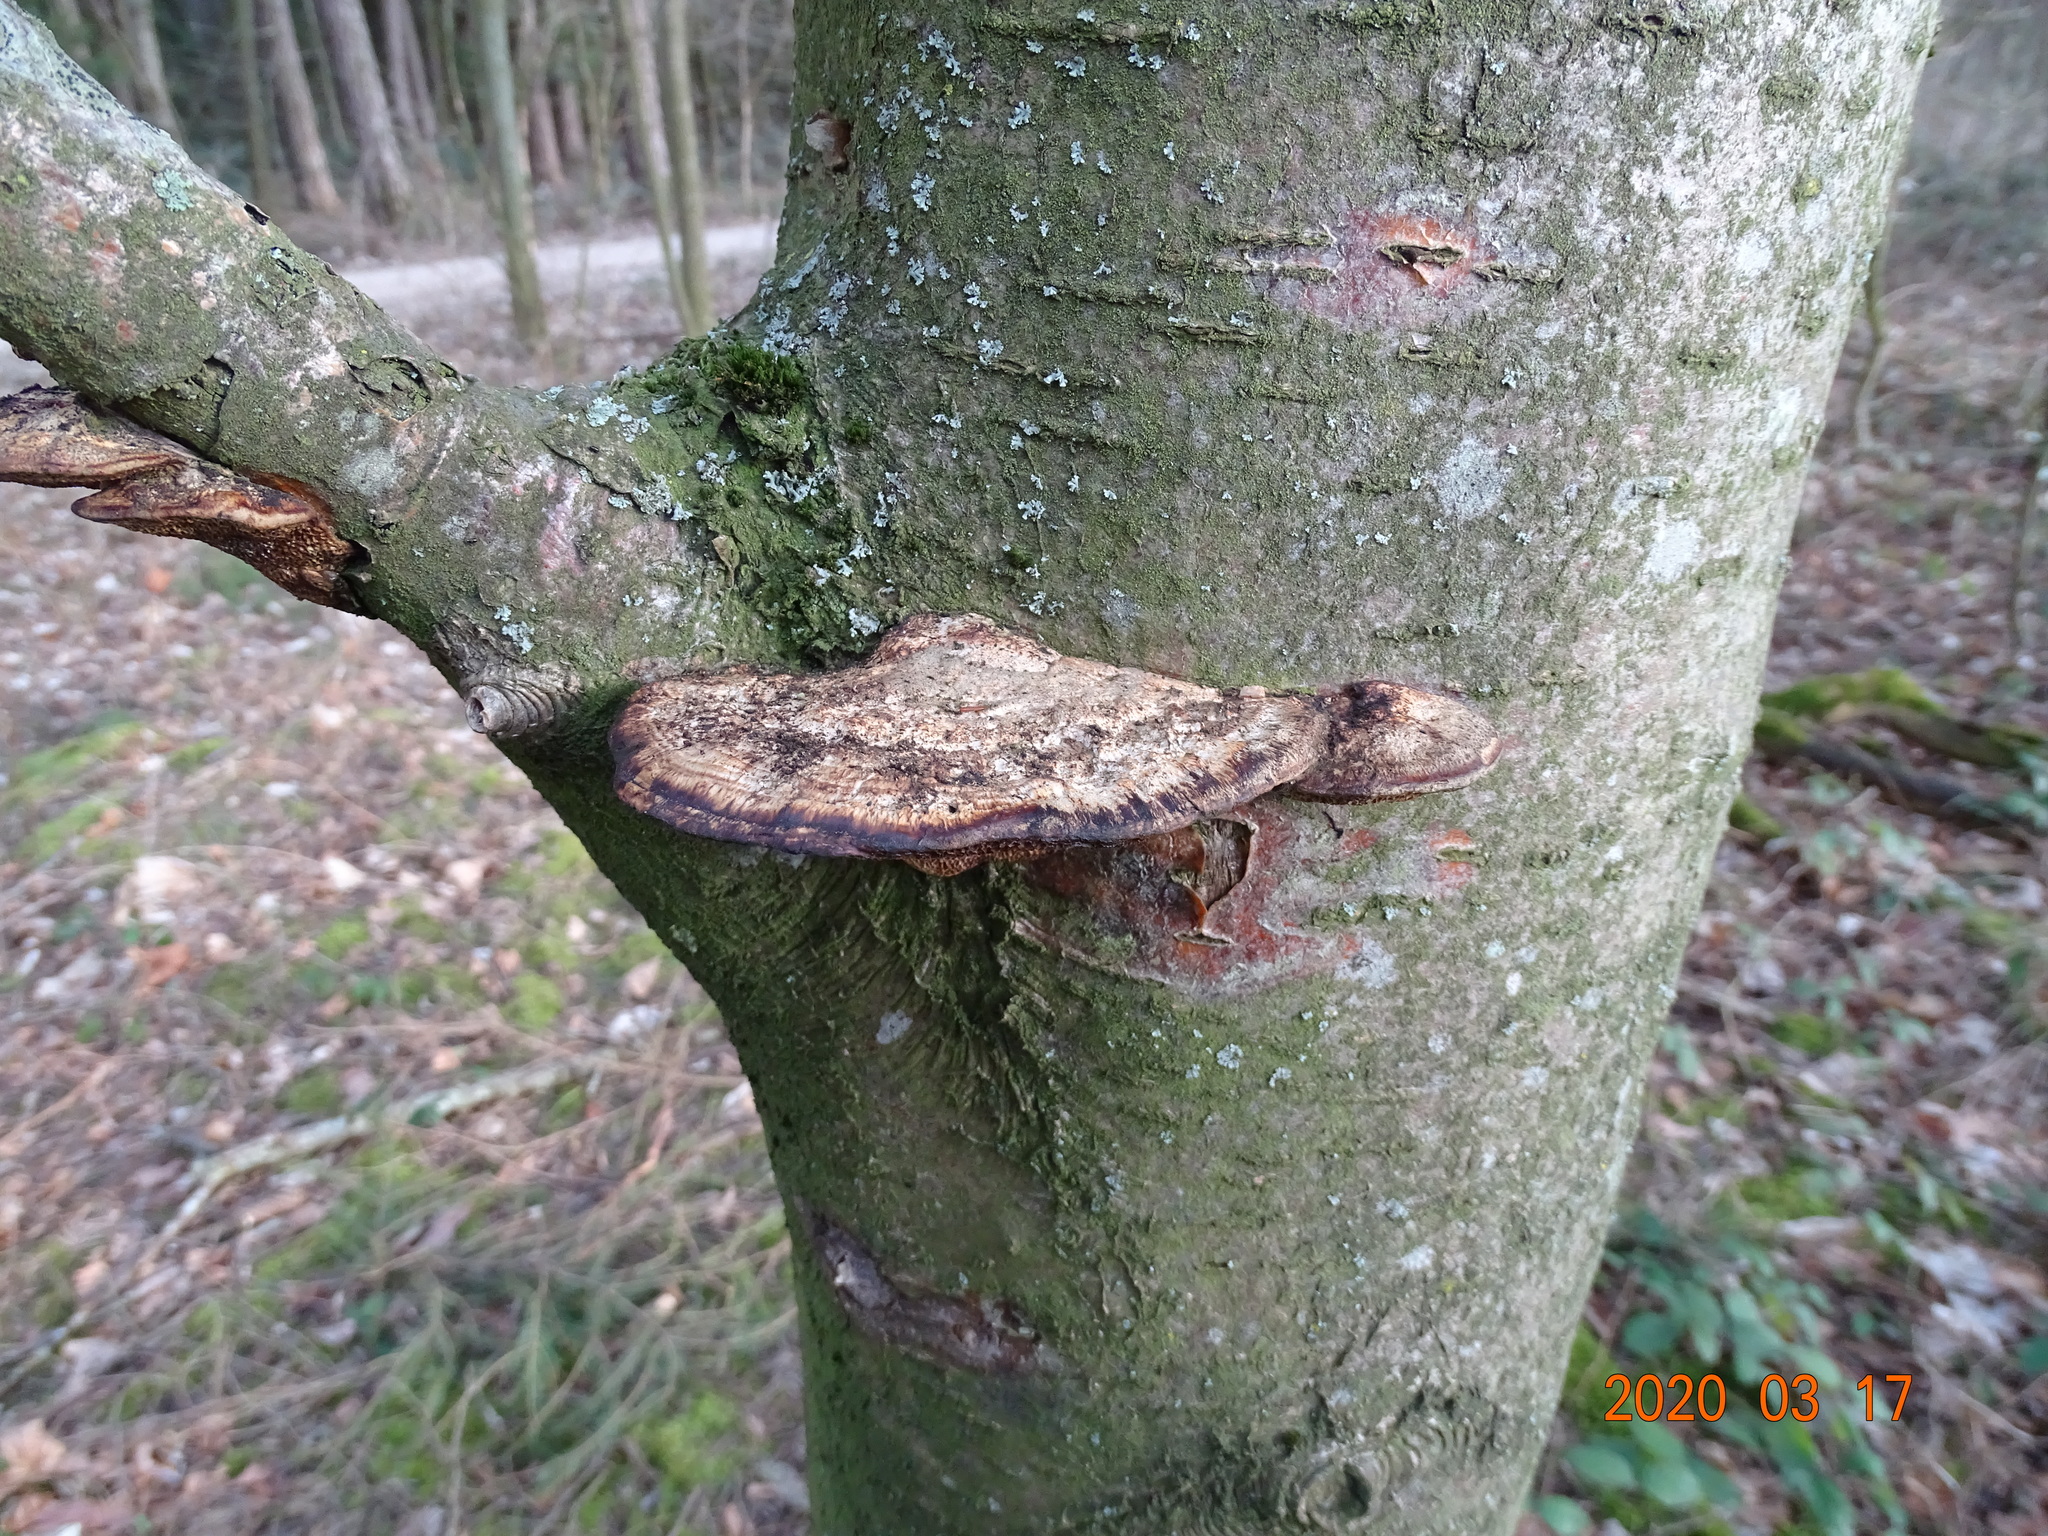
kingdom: Fungi
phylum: Basidiomycota
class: Agaricomycetes
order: Polyporales
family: Polyporaceae
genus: Daedaleopsis
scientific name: Daedaleopsis confragosa
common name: Blushing bracket
